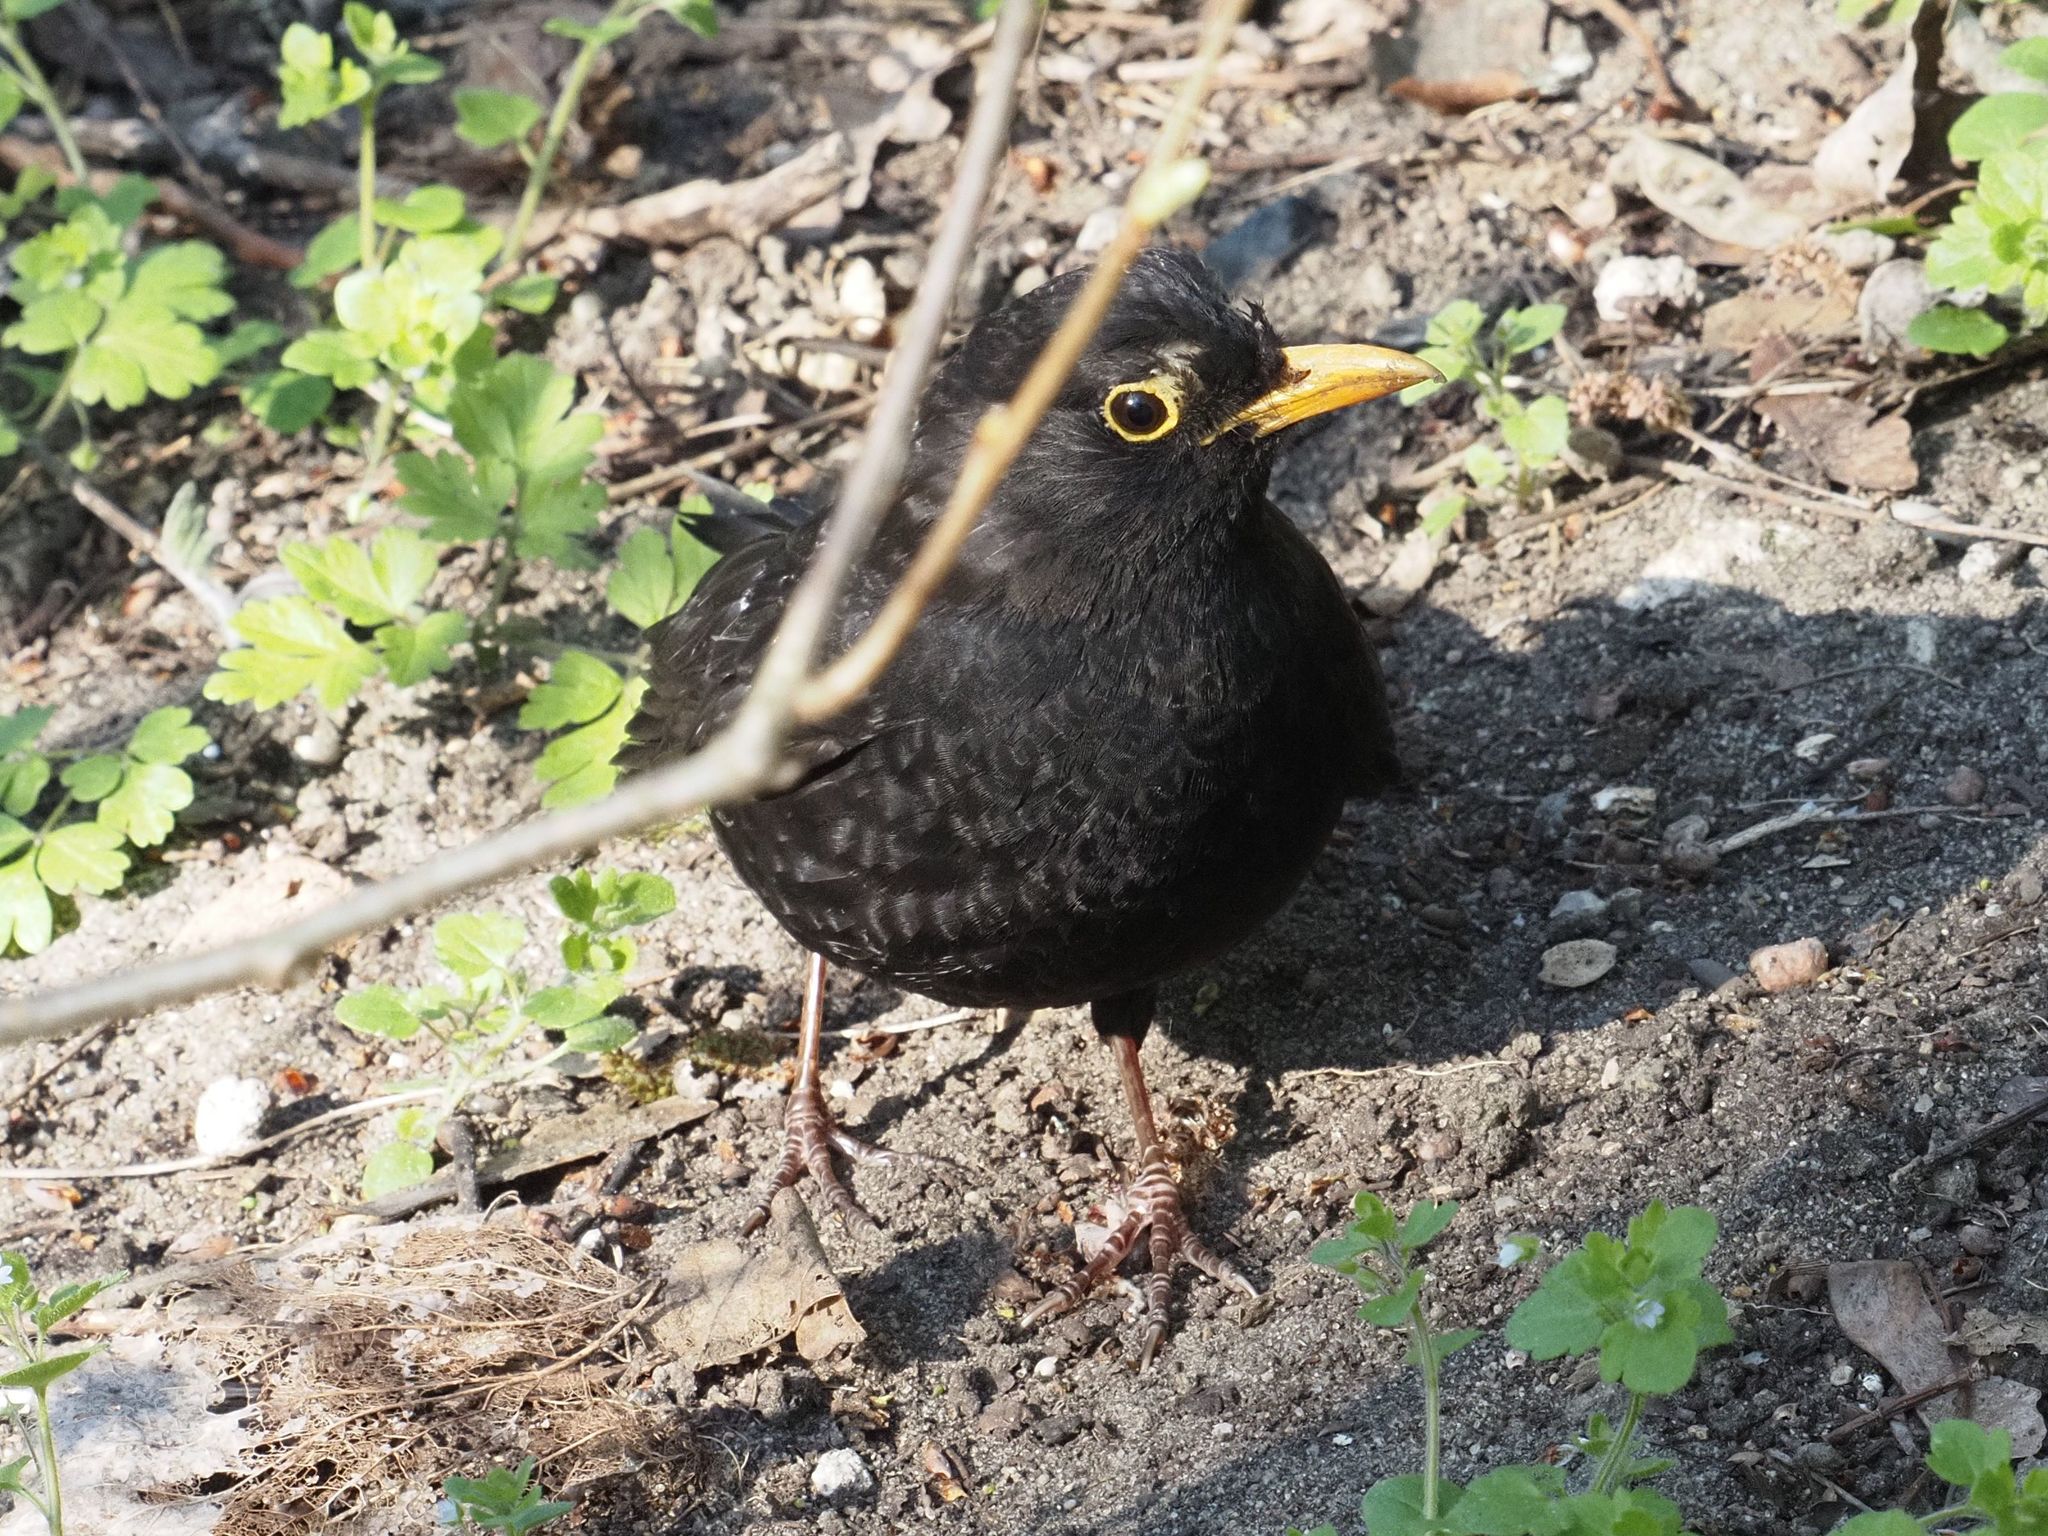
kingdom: Animalia
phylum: Chordata
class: Aves
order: Passeriformes
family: Turdidae
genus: Turdus
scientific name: Turdus merula
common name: Common blackbird
